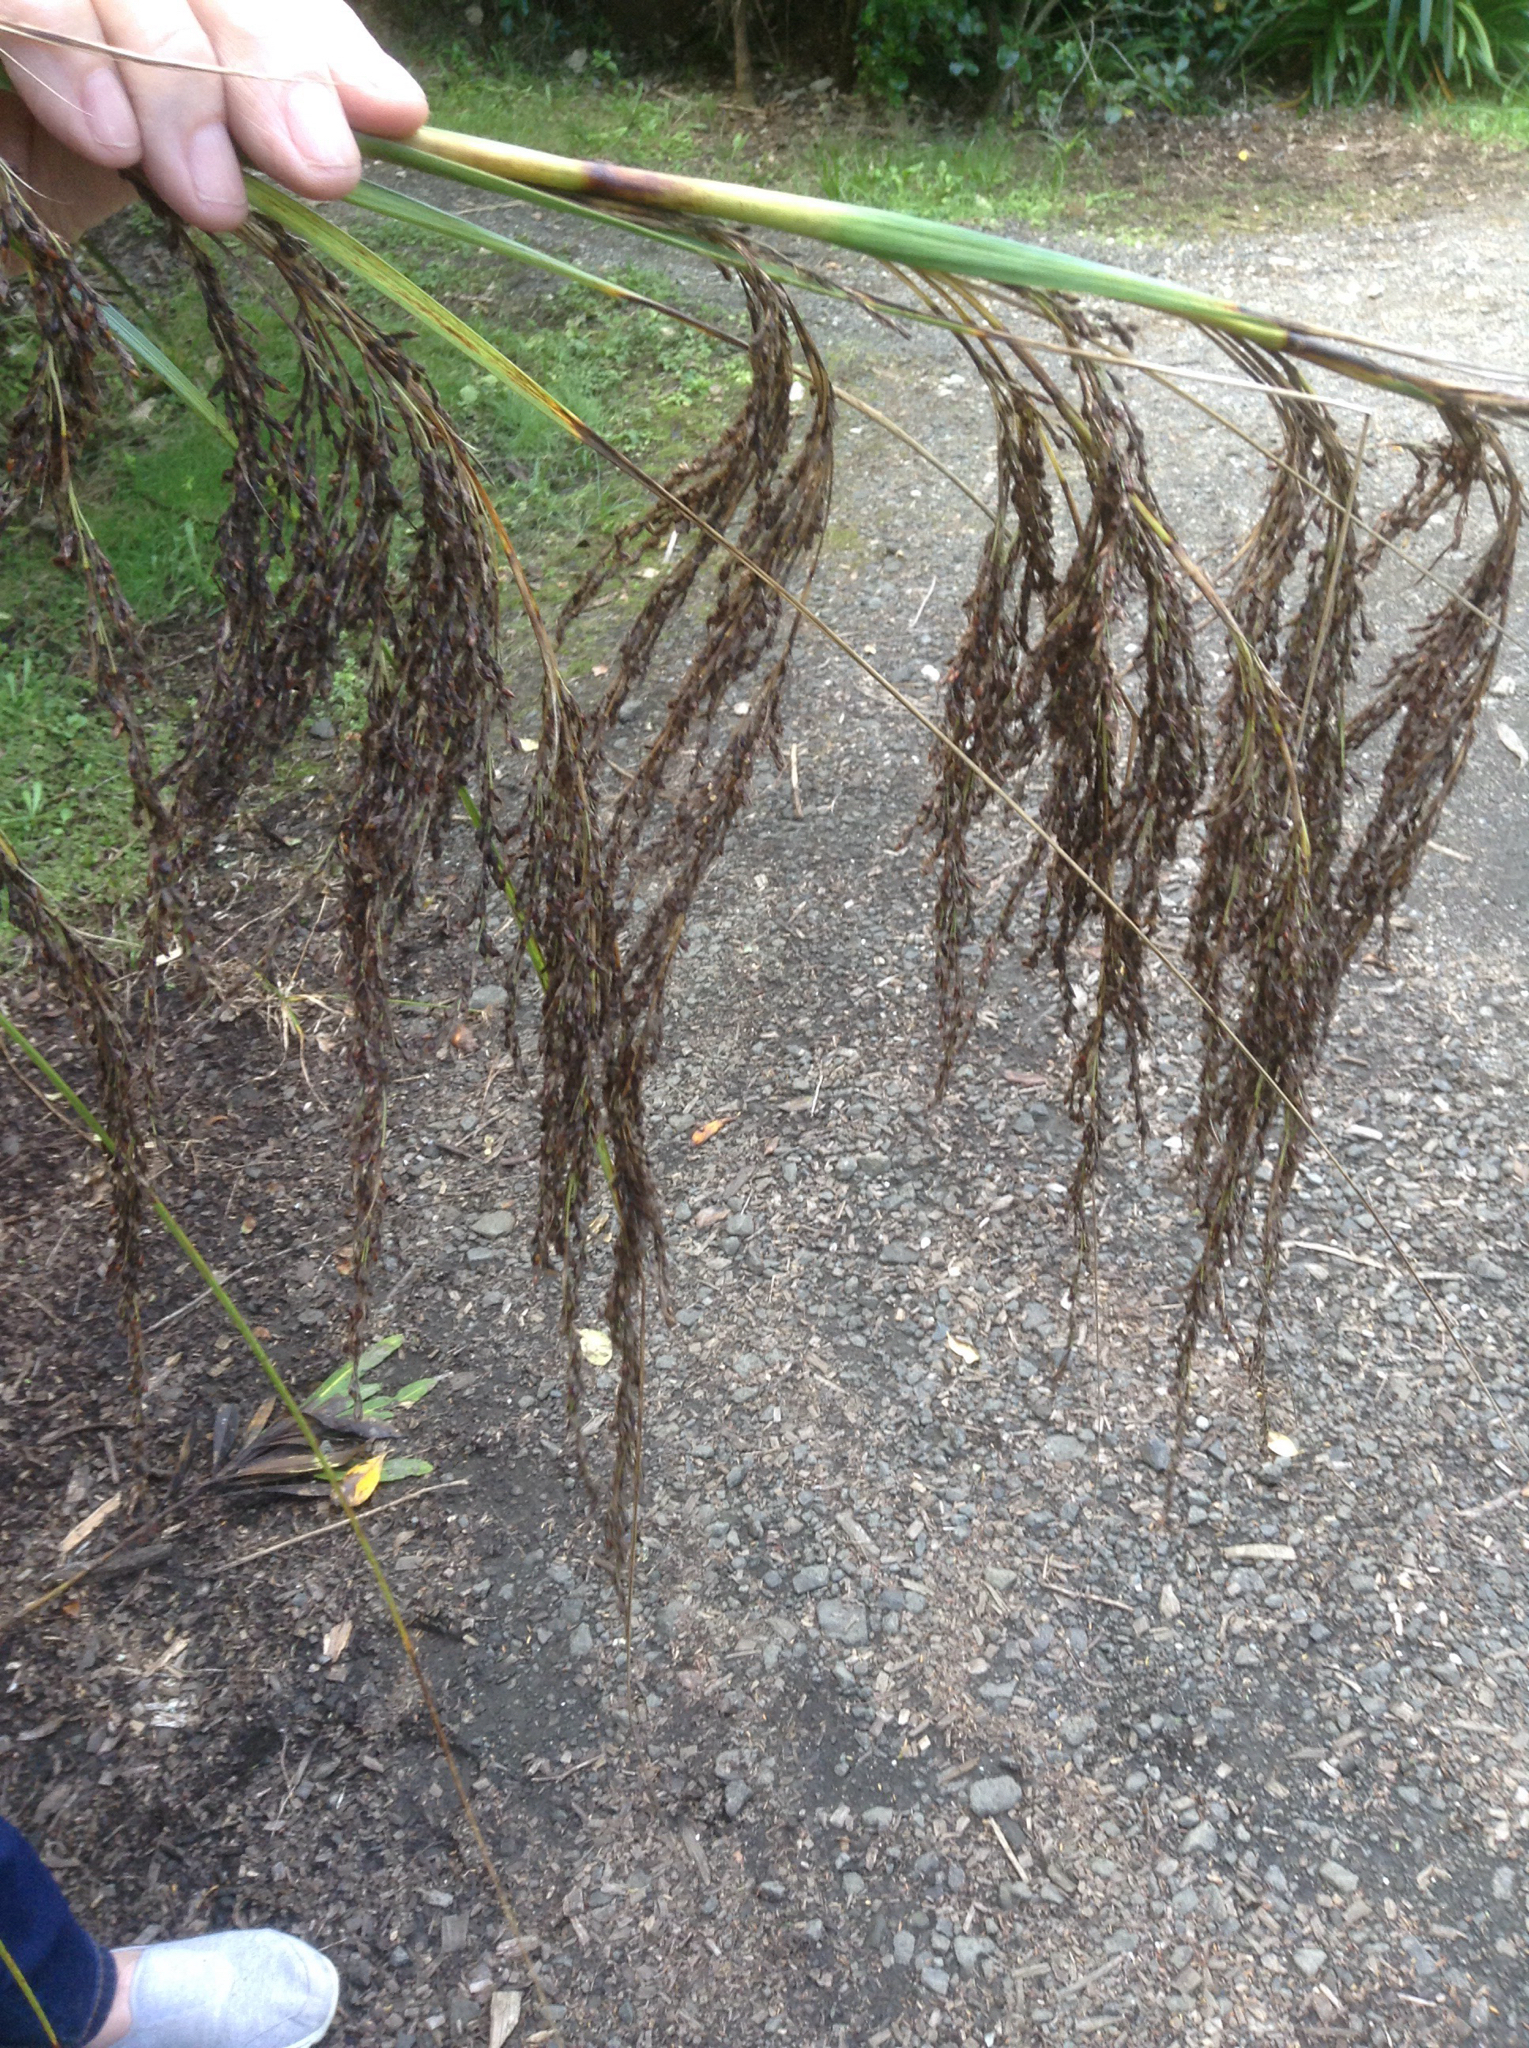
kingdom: Plantae
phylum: Tracheophyta
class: Liliopsida
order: Poales
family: Cyperaceae
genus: Gahnia
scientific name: Gahnia setifolia
